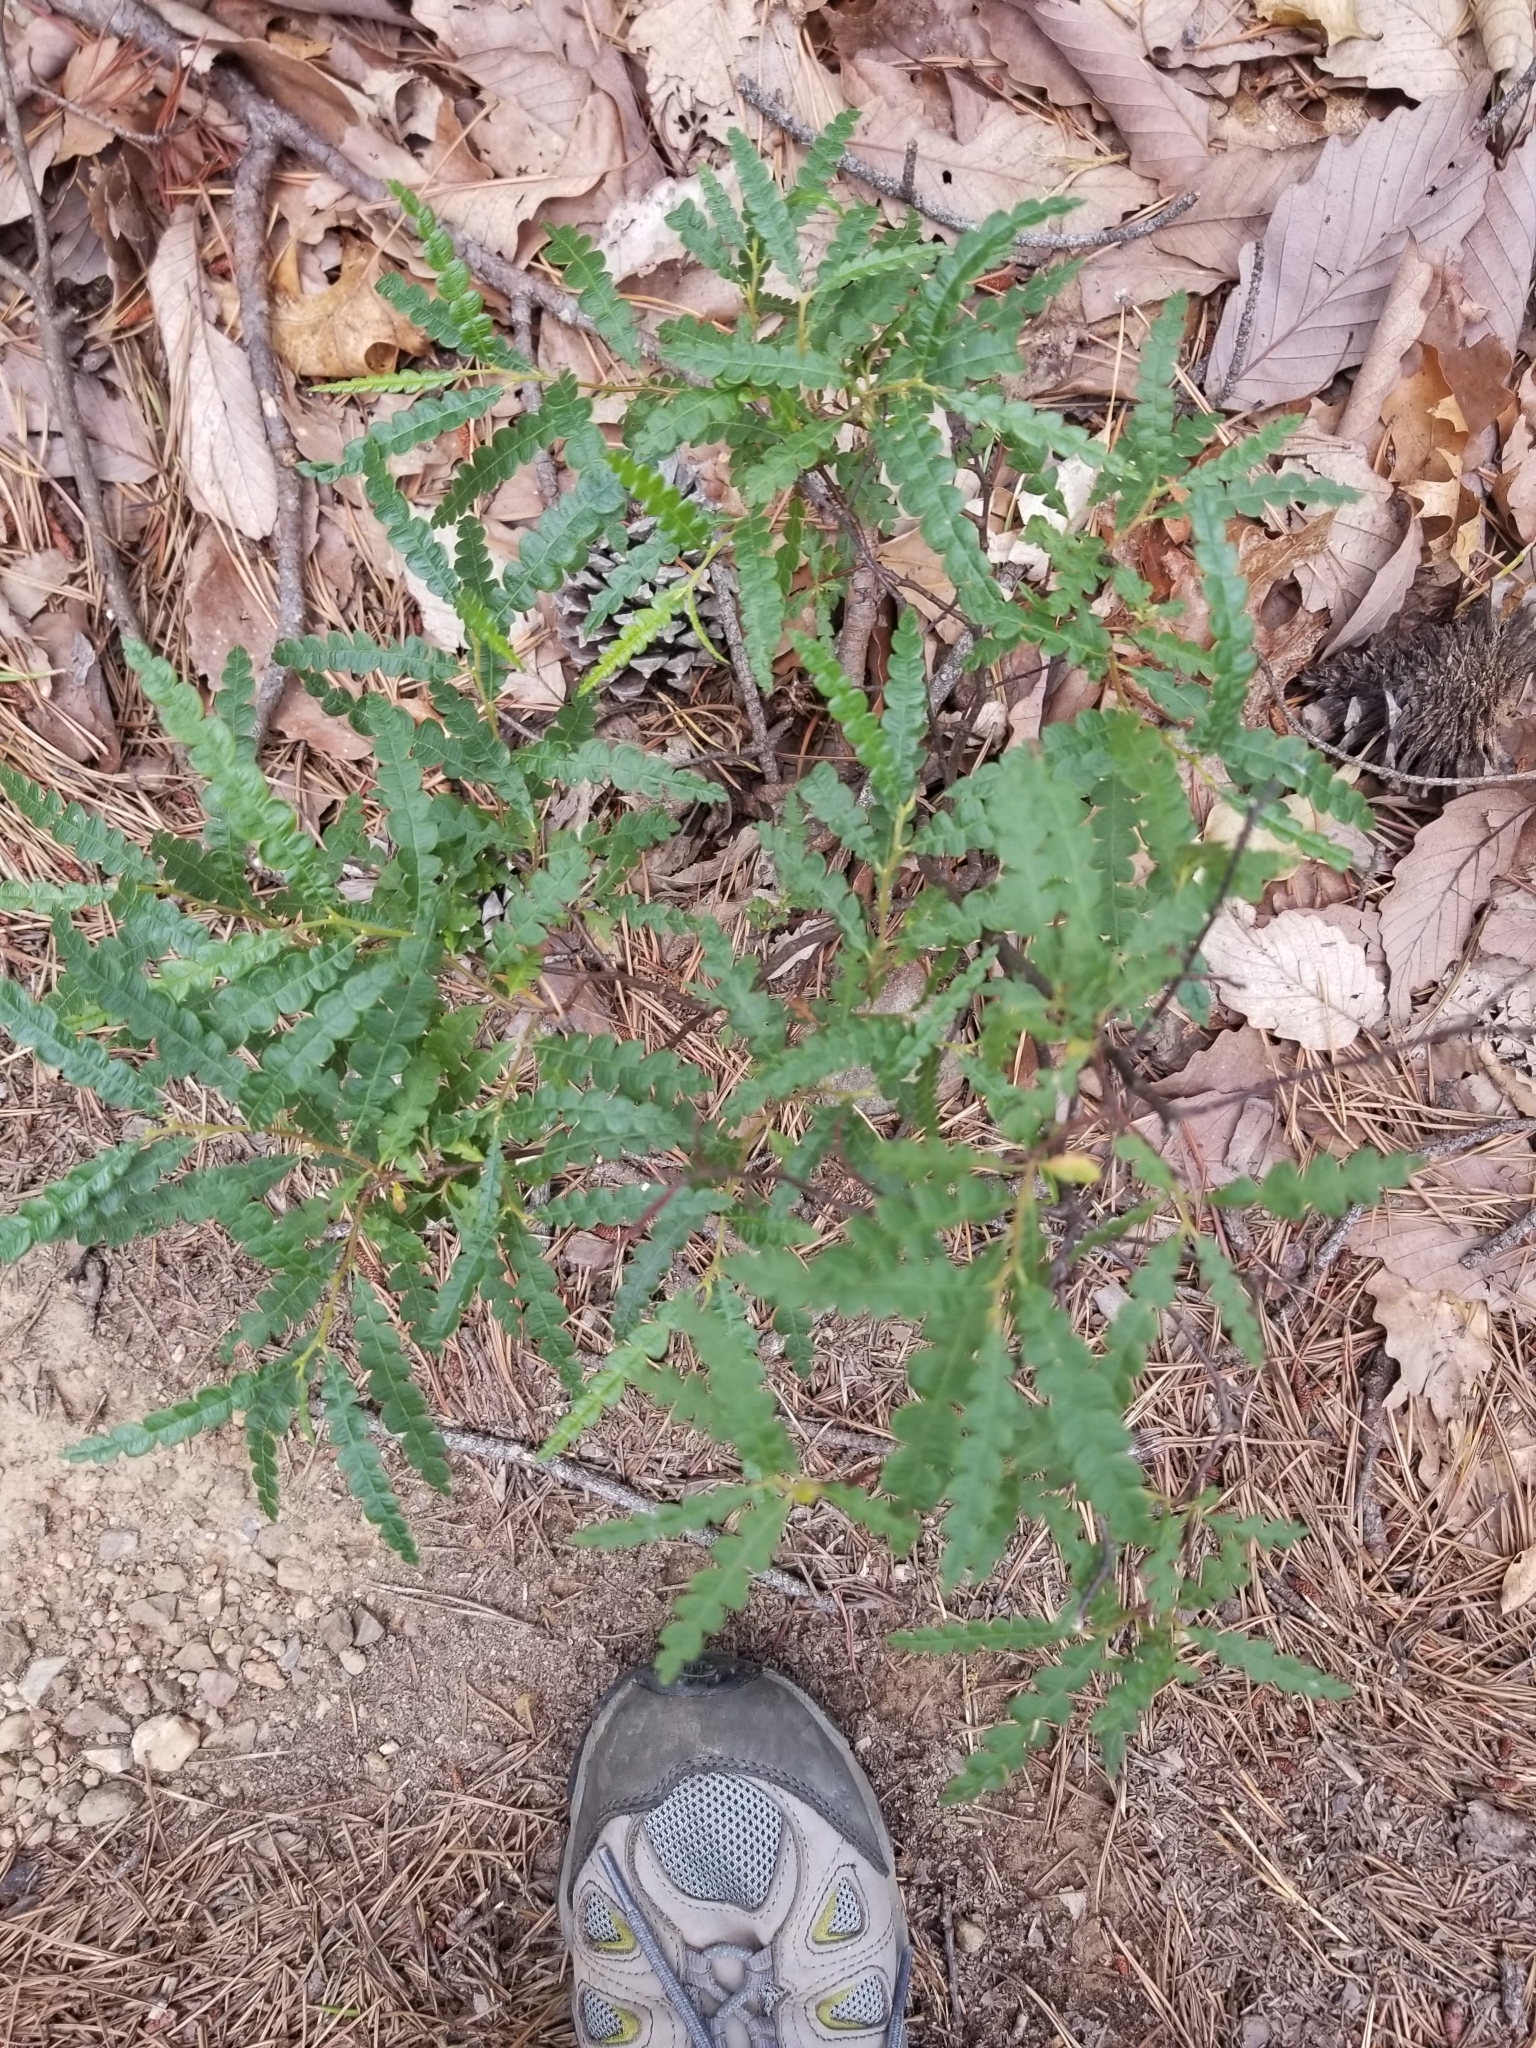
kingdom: Plantae
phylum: Tracheophyta
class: Magnoliopsida
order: Fagales
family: Myricaceae
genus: Comptonia
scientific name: Comptonia peregrina
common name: Sweet-fern
